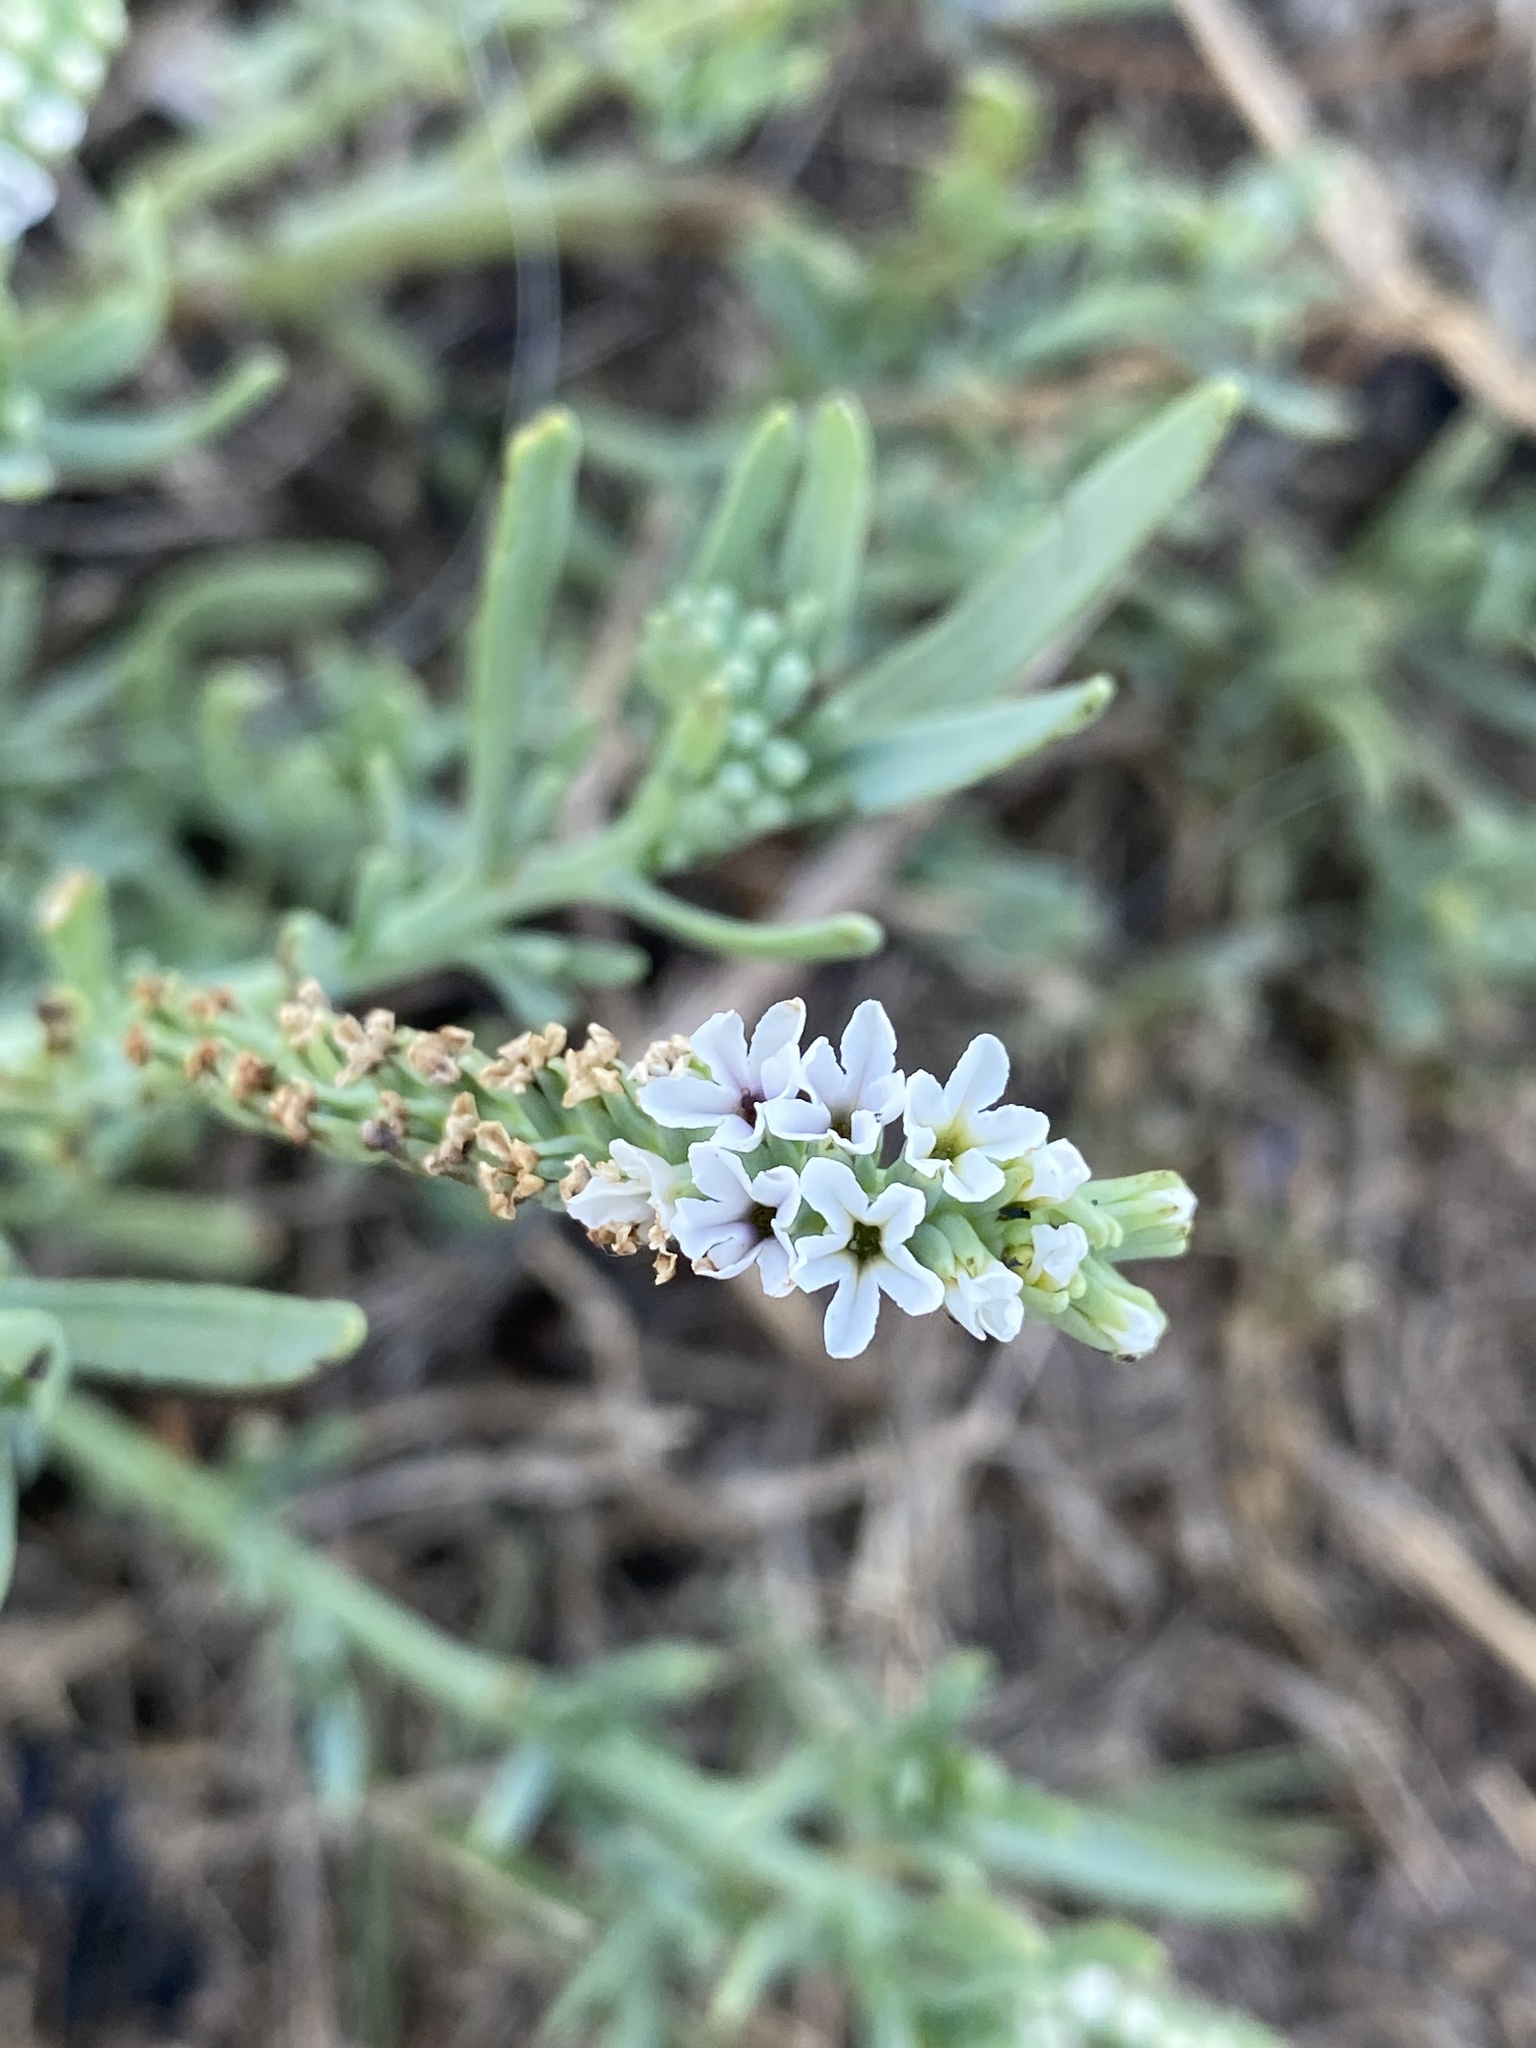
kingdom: Plantae
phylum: Tracheophyta
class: Magnoliopsida
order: Boraginales
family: Heliotropiaceae
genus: Heliotropium
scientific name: Heliotropium curassavicum
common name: Seaside heliotrope
